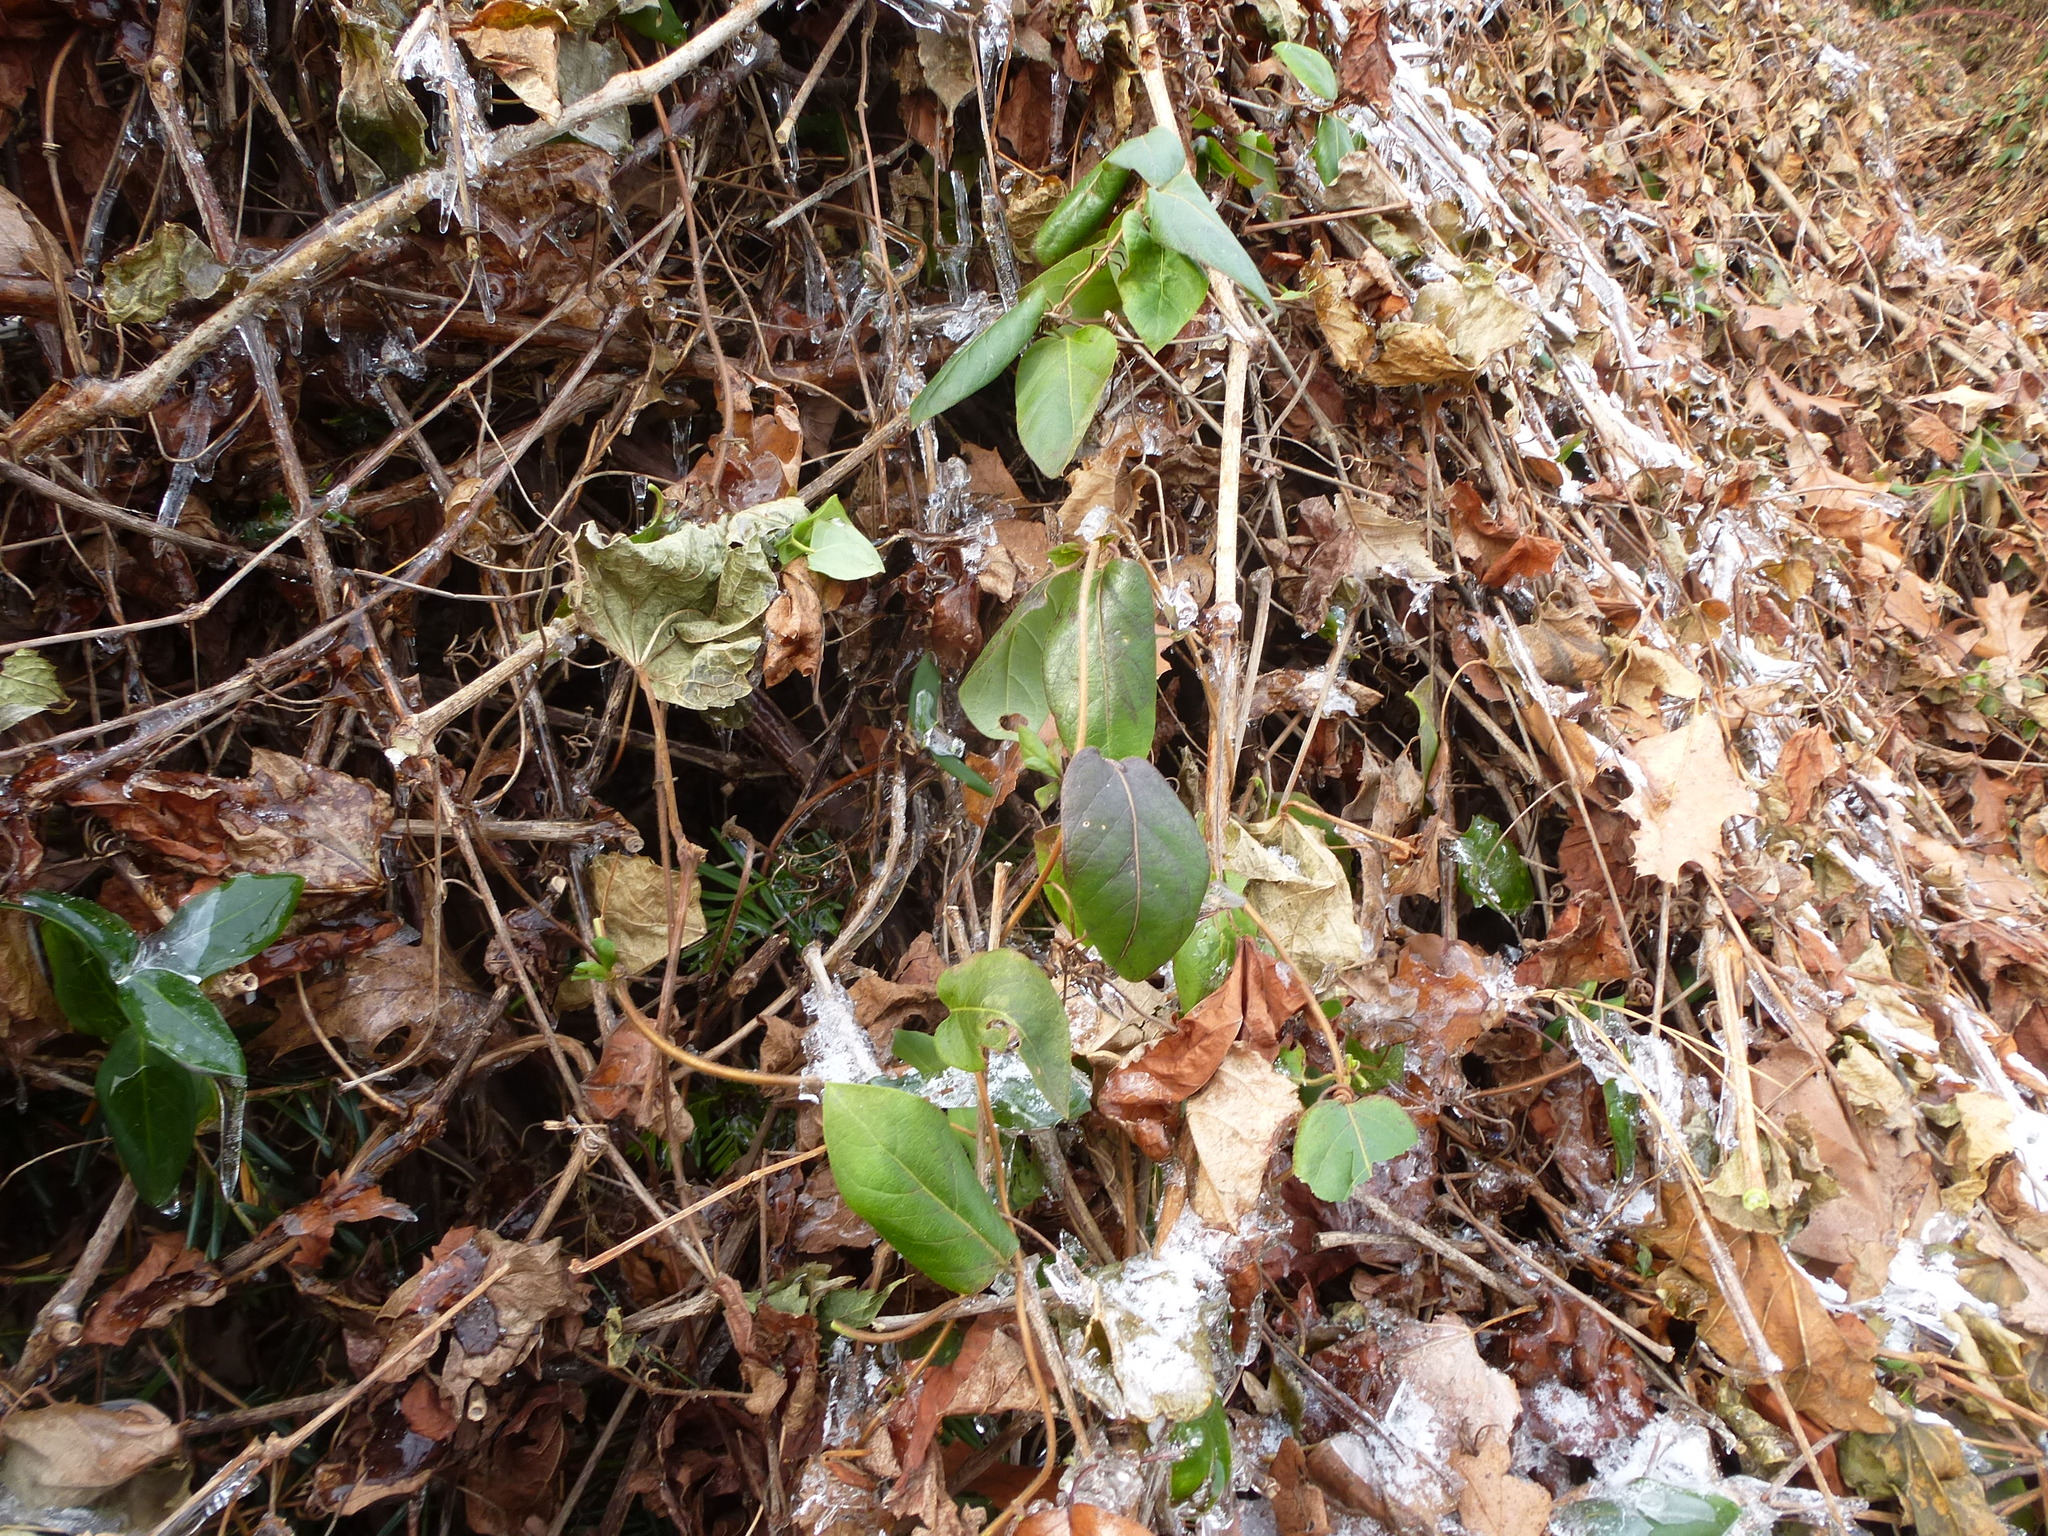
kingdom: Plantae
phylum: Tracheophyta
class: Magnoliopsida
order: Dipsacales
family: Caprifoliaceae
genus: Lonicera
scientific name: Lonicera japonica
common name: Japanese honeysuckle
